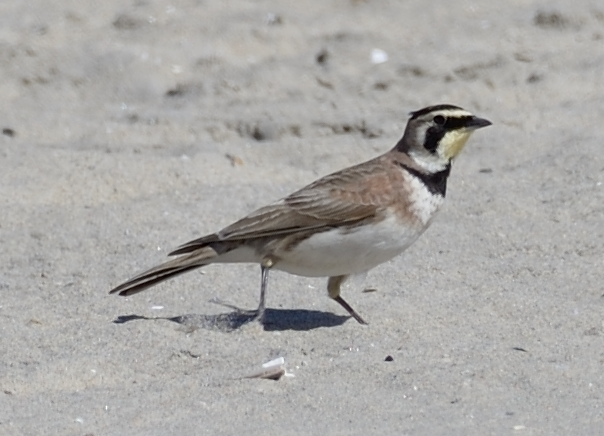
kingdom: Animalia
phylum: Chordata
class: Aves
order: Passeriformes
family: Alaudidae
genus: Eremophila
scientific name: Eremophila alpestris
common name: Horned lark
